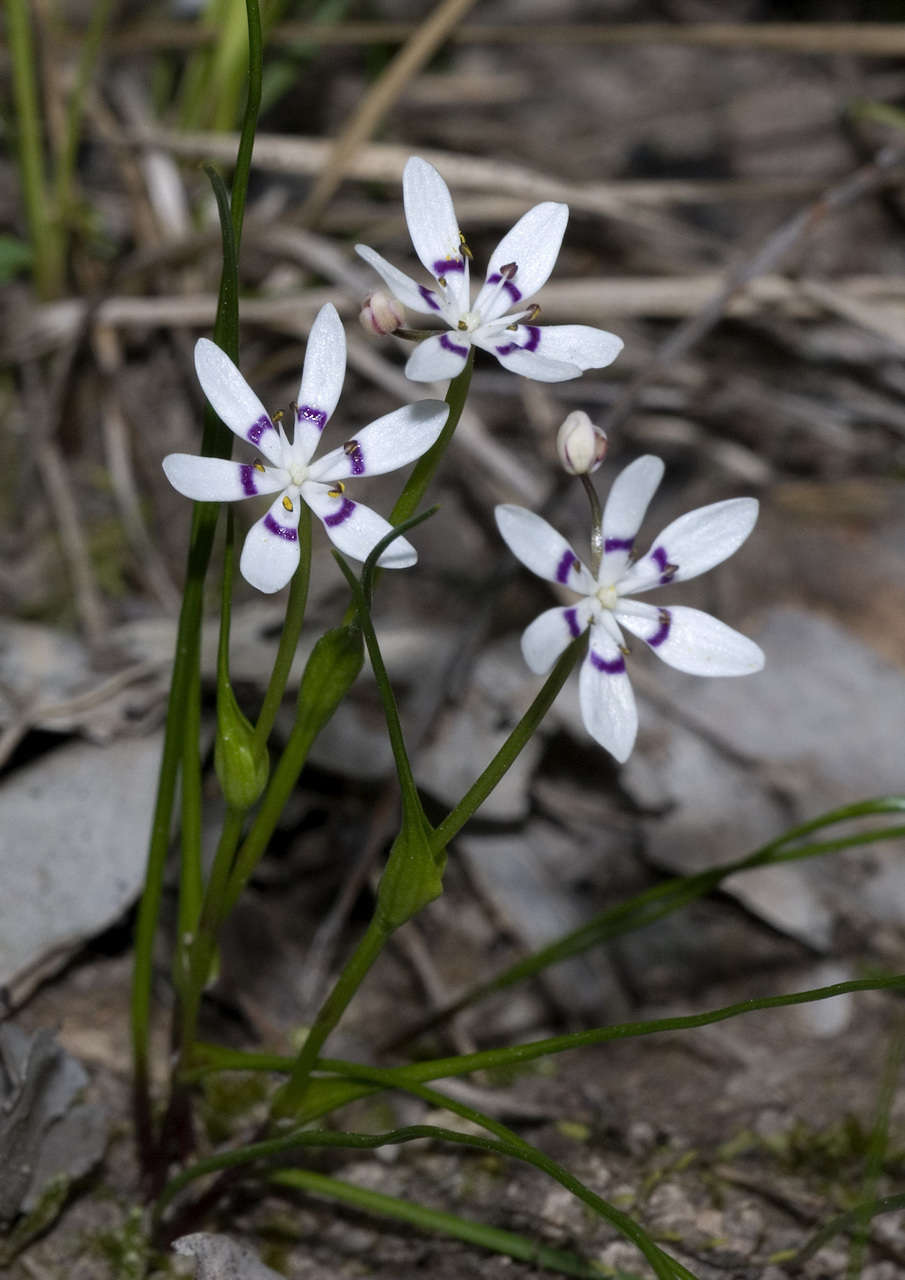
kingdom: Plantae
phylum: Tracheophyta
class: Liliopsida
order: Liliales
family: Colchicaceae
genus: Wurmbea
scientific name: Wurmbea dioica
